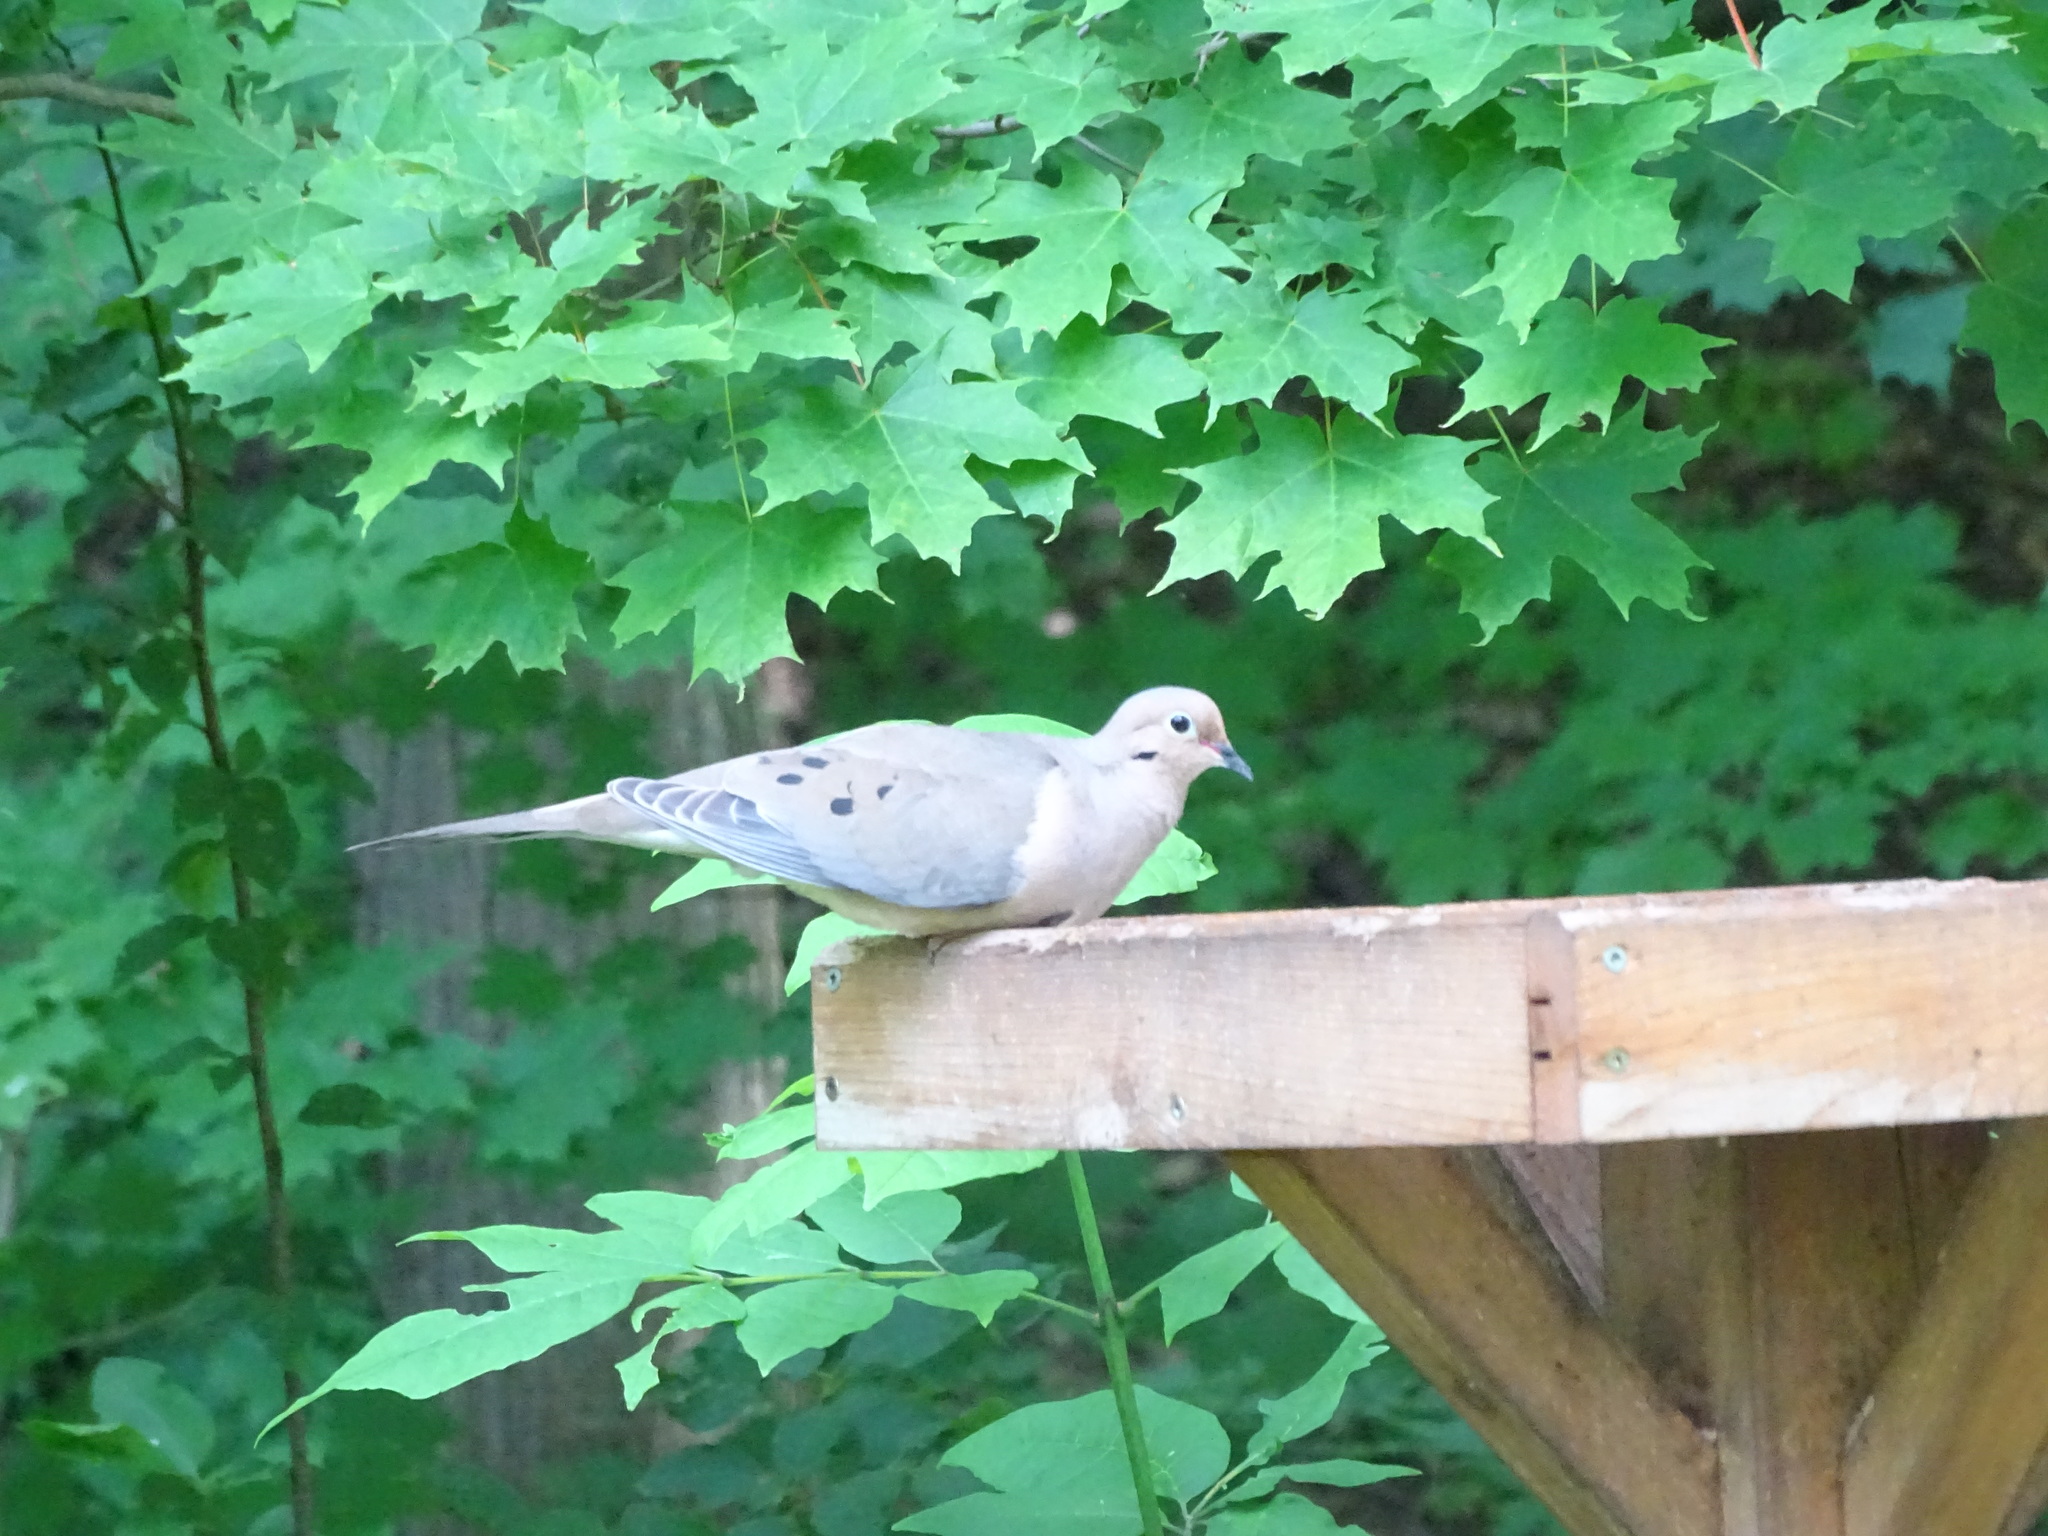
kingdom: Animalia
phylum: Chordata
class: Aves
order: Columbiformes
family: Columbidae
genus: Zenaida
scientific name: Zenaida macroura
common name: Mourning dove
